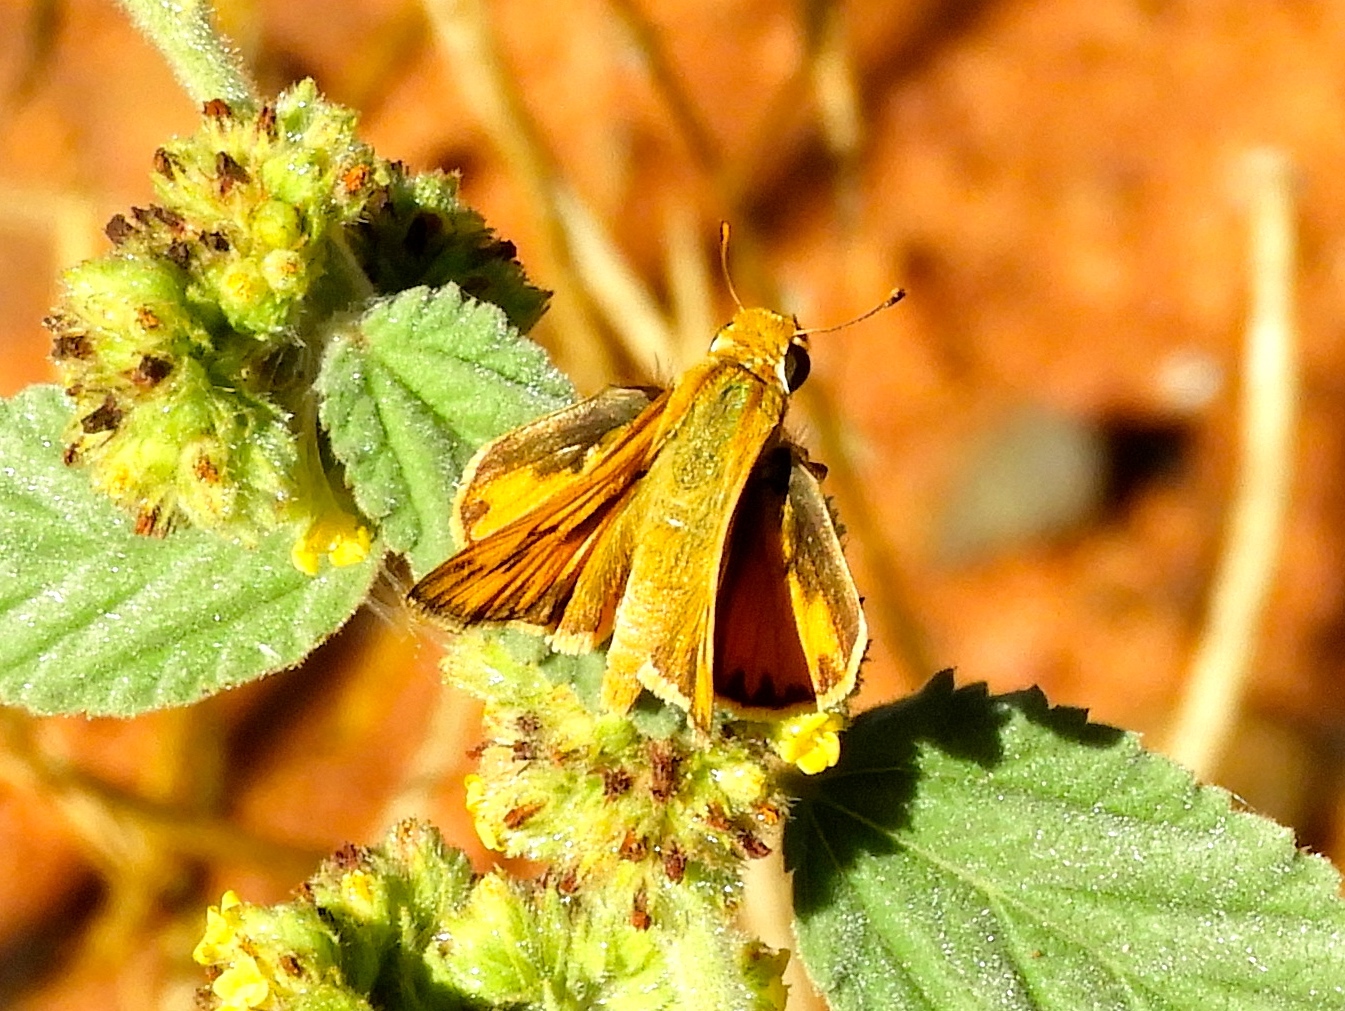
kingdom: Animalia
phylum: Arthropoda
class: Insecta
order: Lepidoptera
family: Hesperiidae
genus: Hylephila
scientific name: Hylephila phyleus
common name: Fiery skipper
